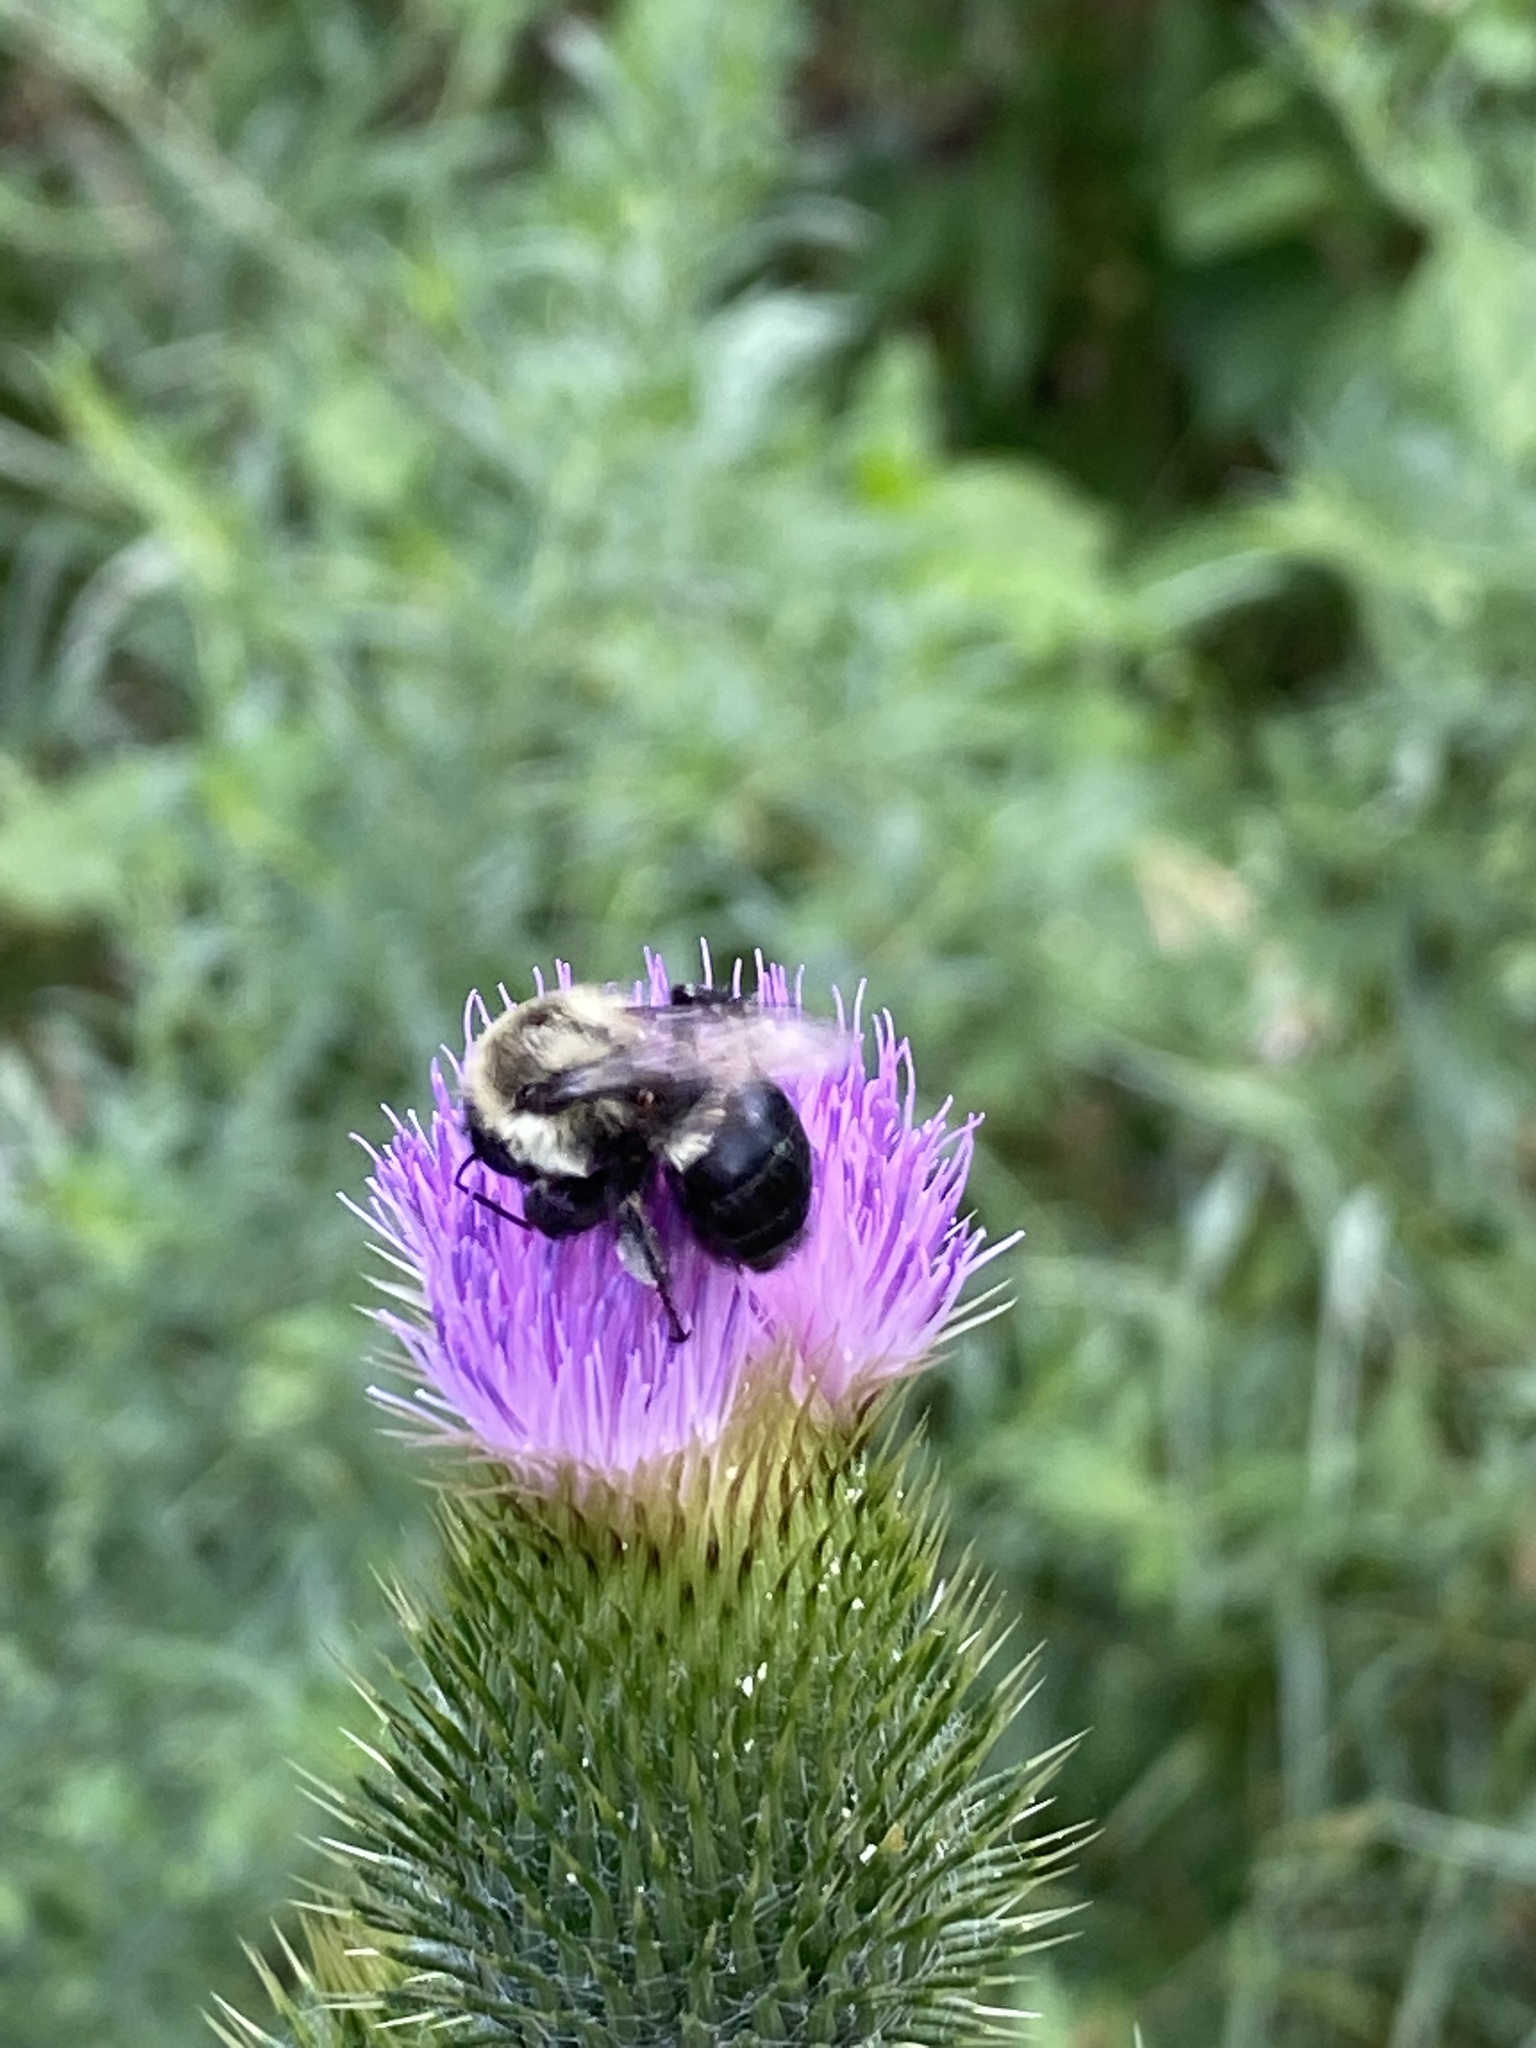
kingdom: Animalia
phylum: Arthropoda
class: Insecta
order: Hymenoptera
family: Apidae
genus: Bombus
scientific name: Bombus impatiens
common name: Common eastern bumble bee
